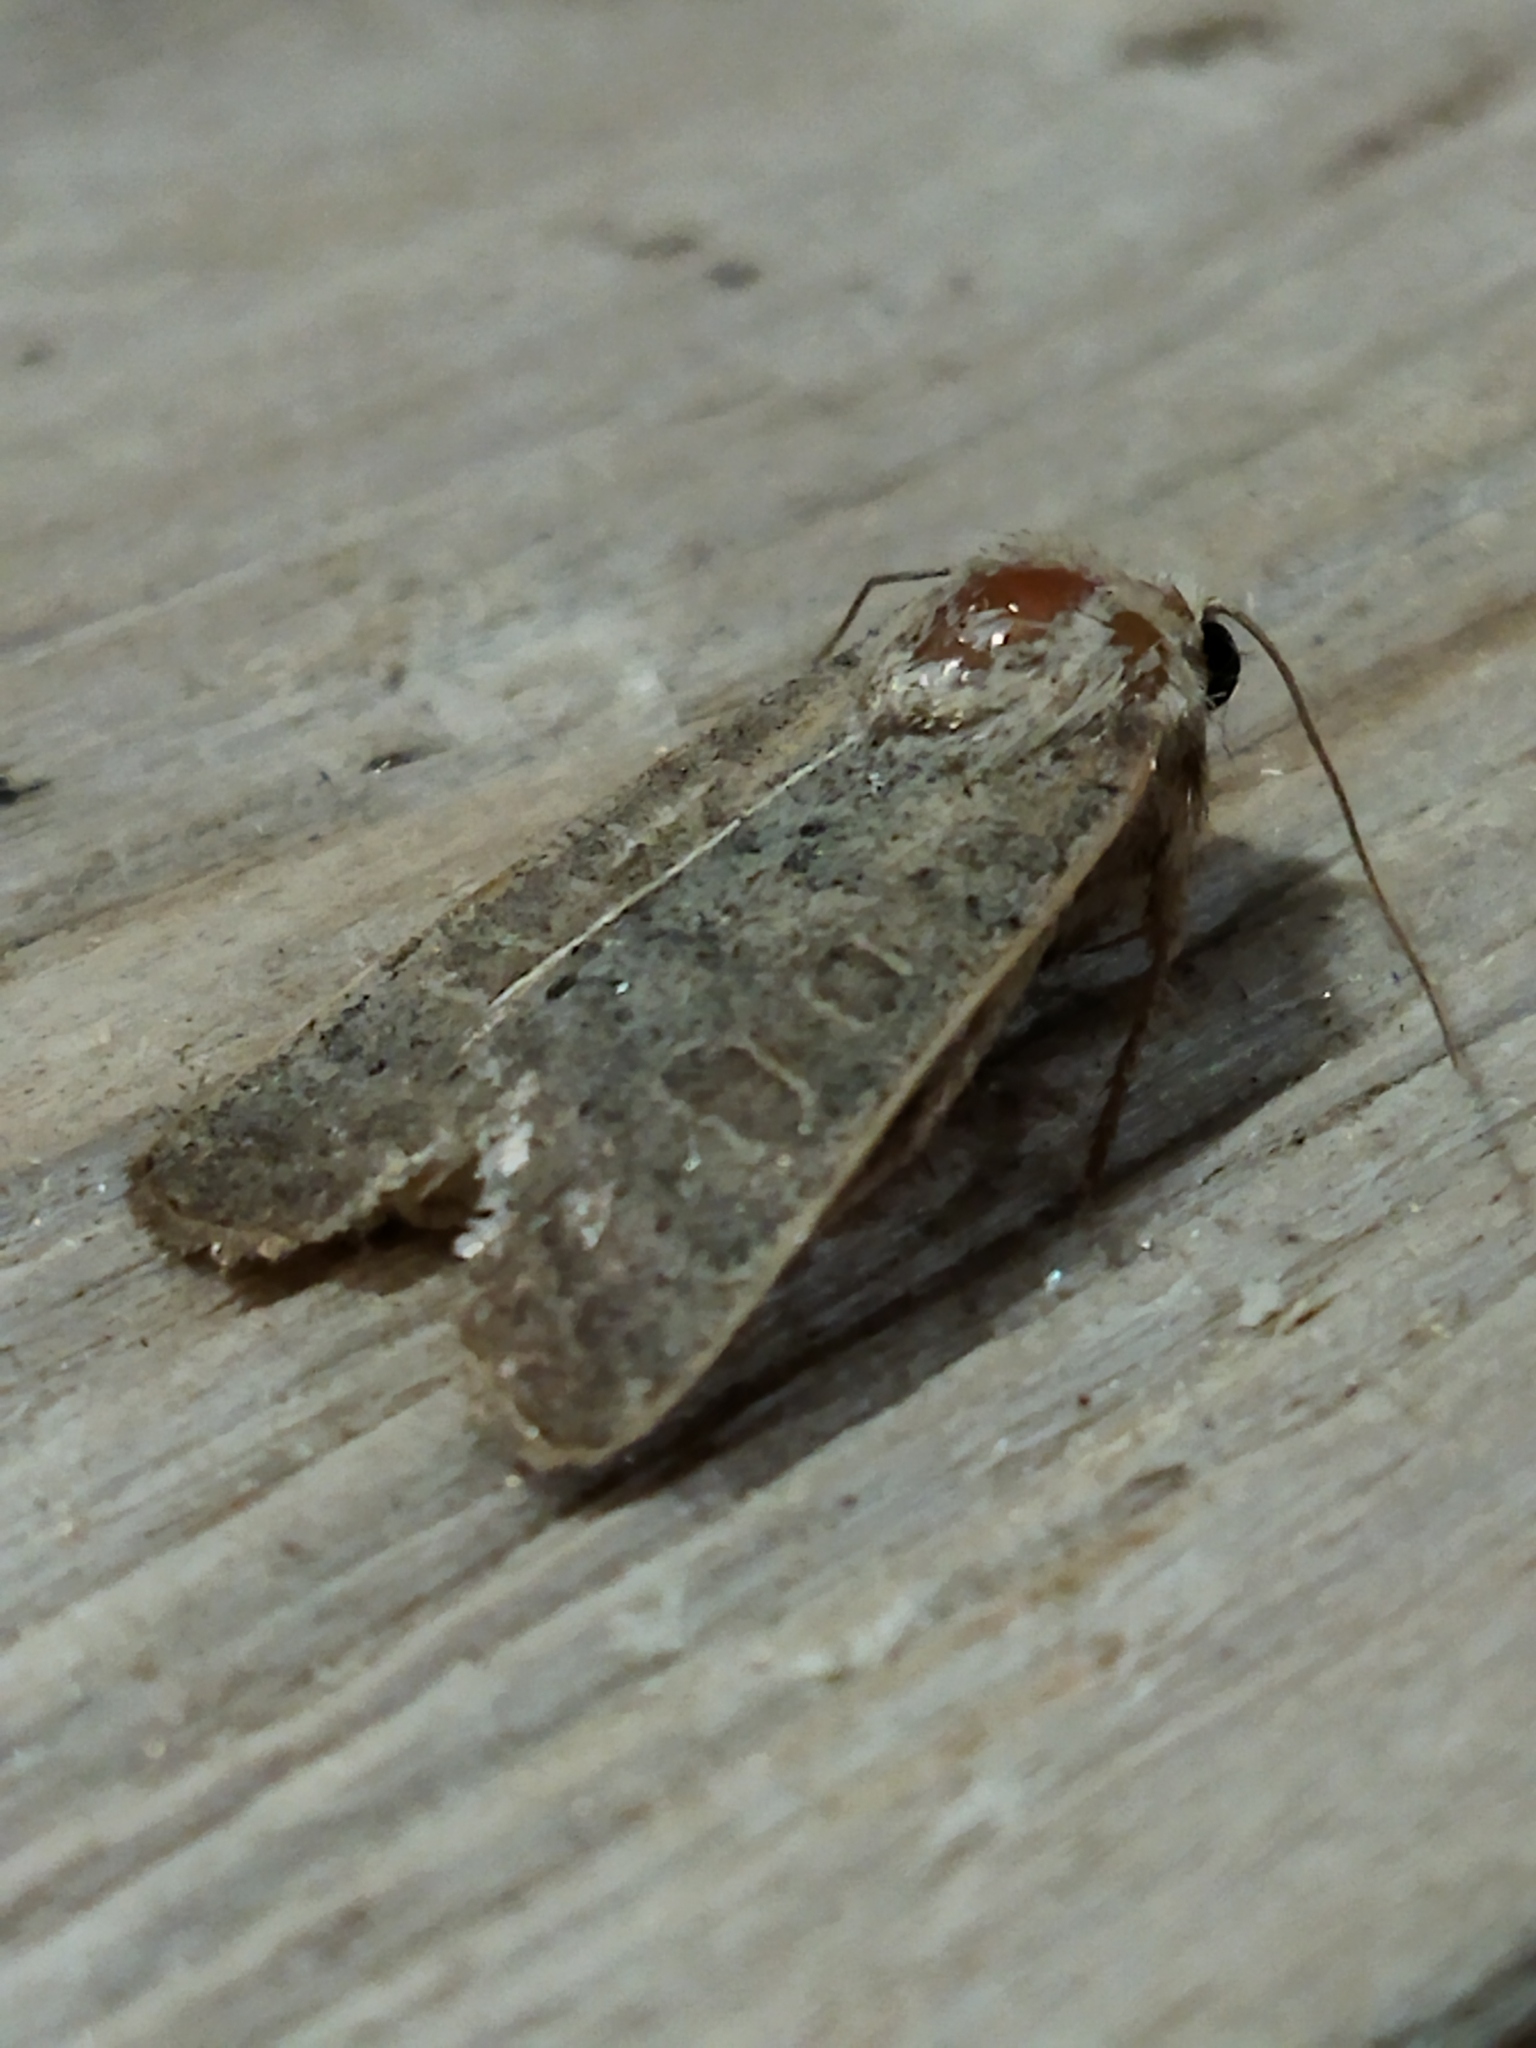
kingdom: Animalia
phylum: Arthropoda
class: Insecta
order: Lepidoptera
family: Noctuidae
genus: Hoplodrina
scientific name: Hoplodrina ambigua
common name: Vine's rustic
